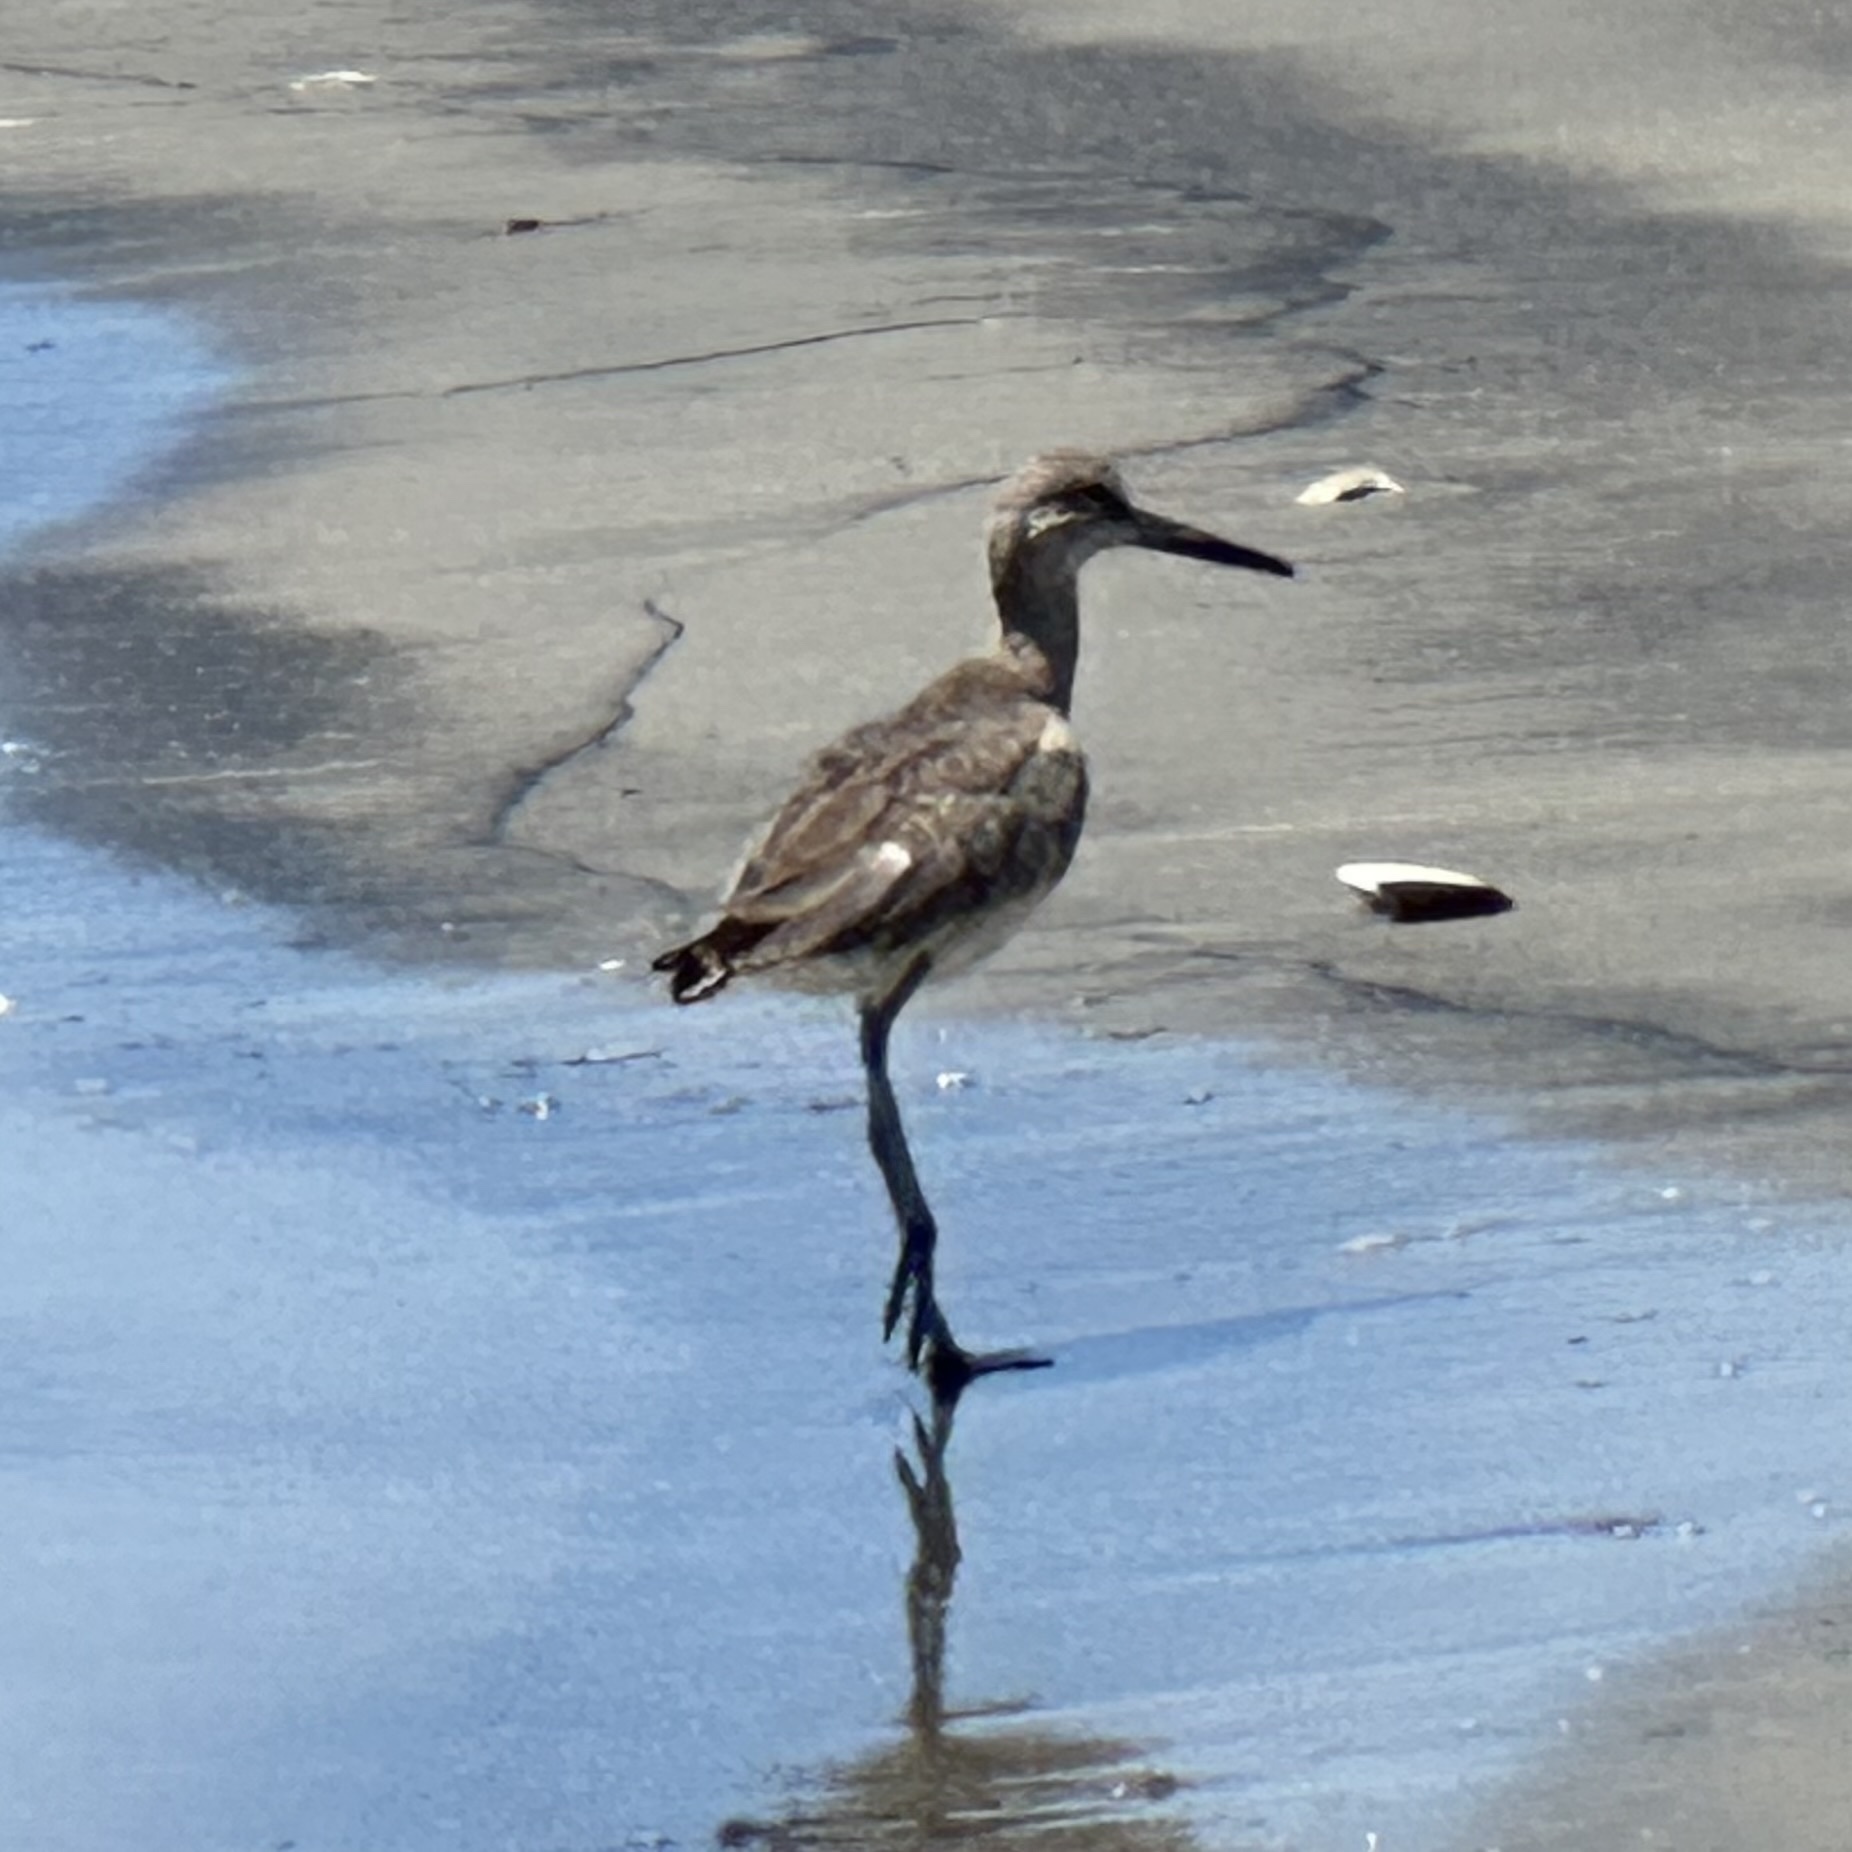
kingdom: Animalia
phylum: Chordata
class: Aves
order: Charadriiformes
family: Scolopacidae
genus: Tringa
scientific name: Tringa semipalmata
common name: Willet
